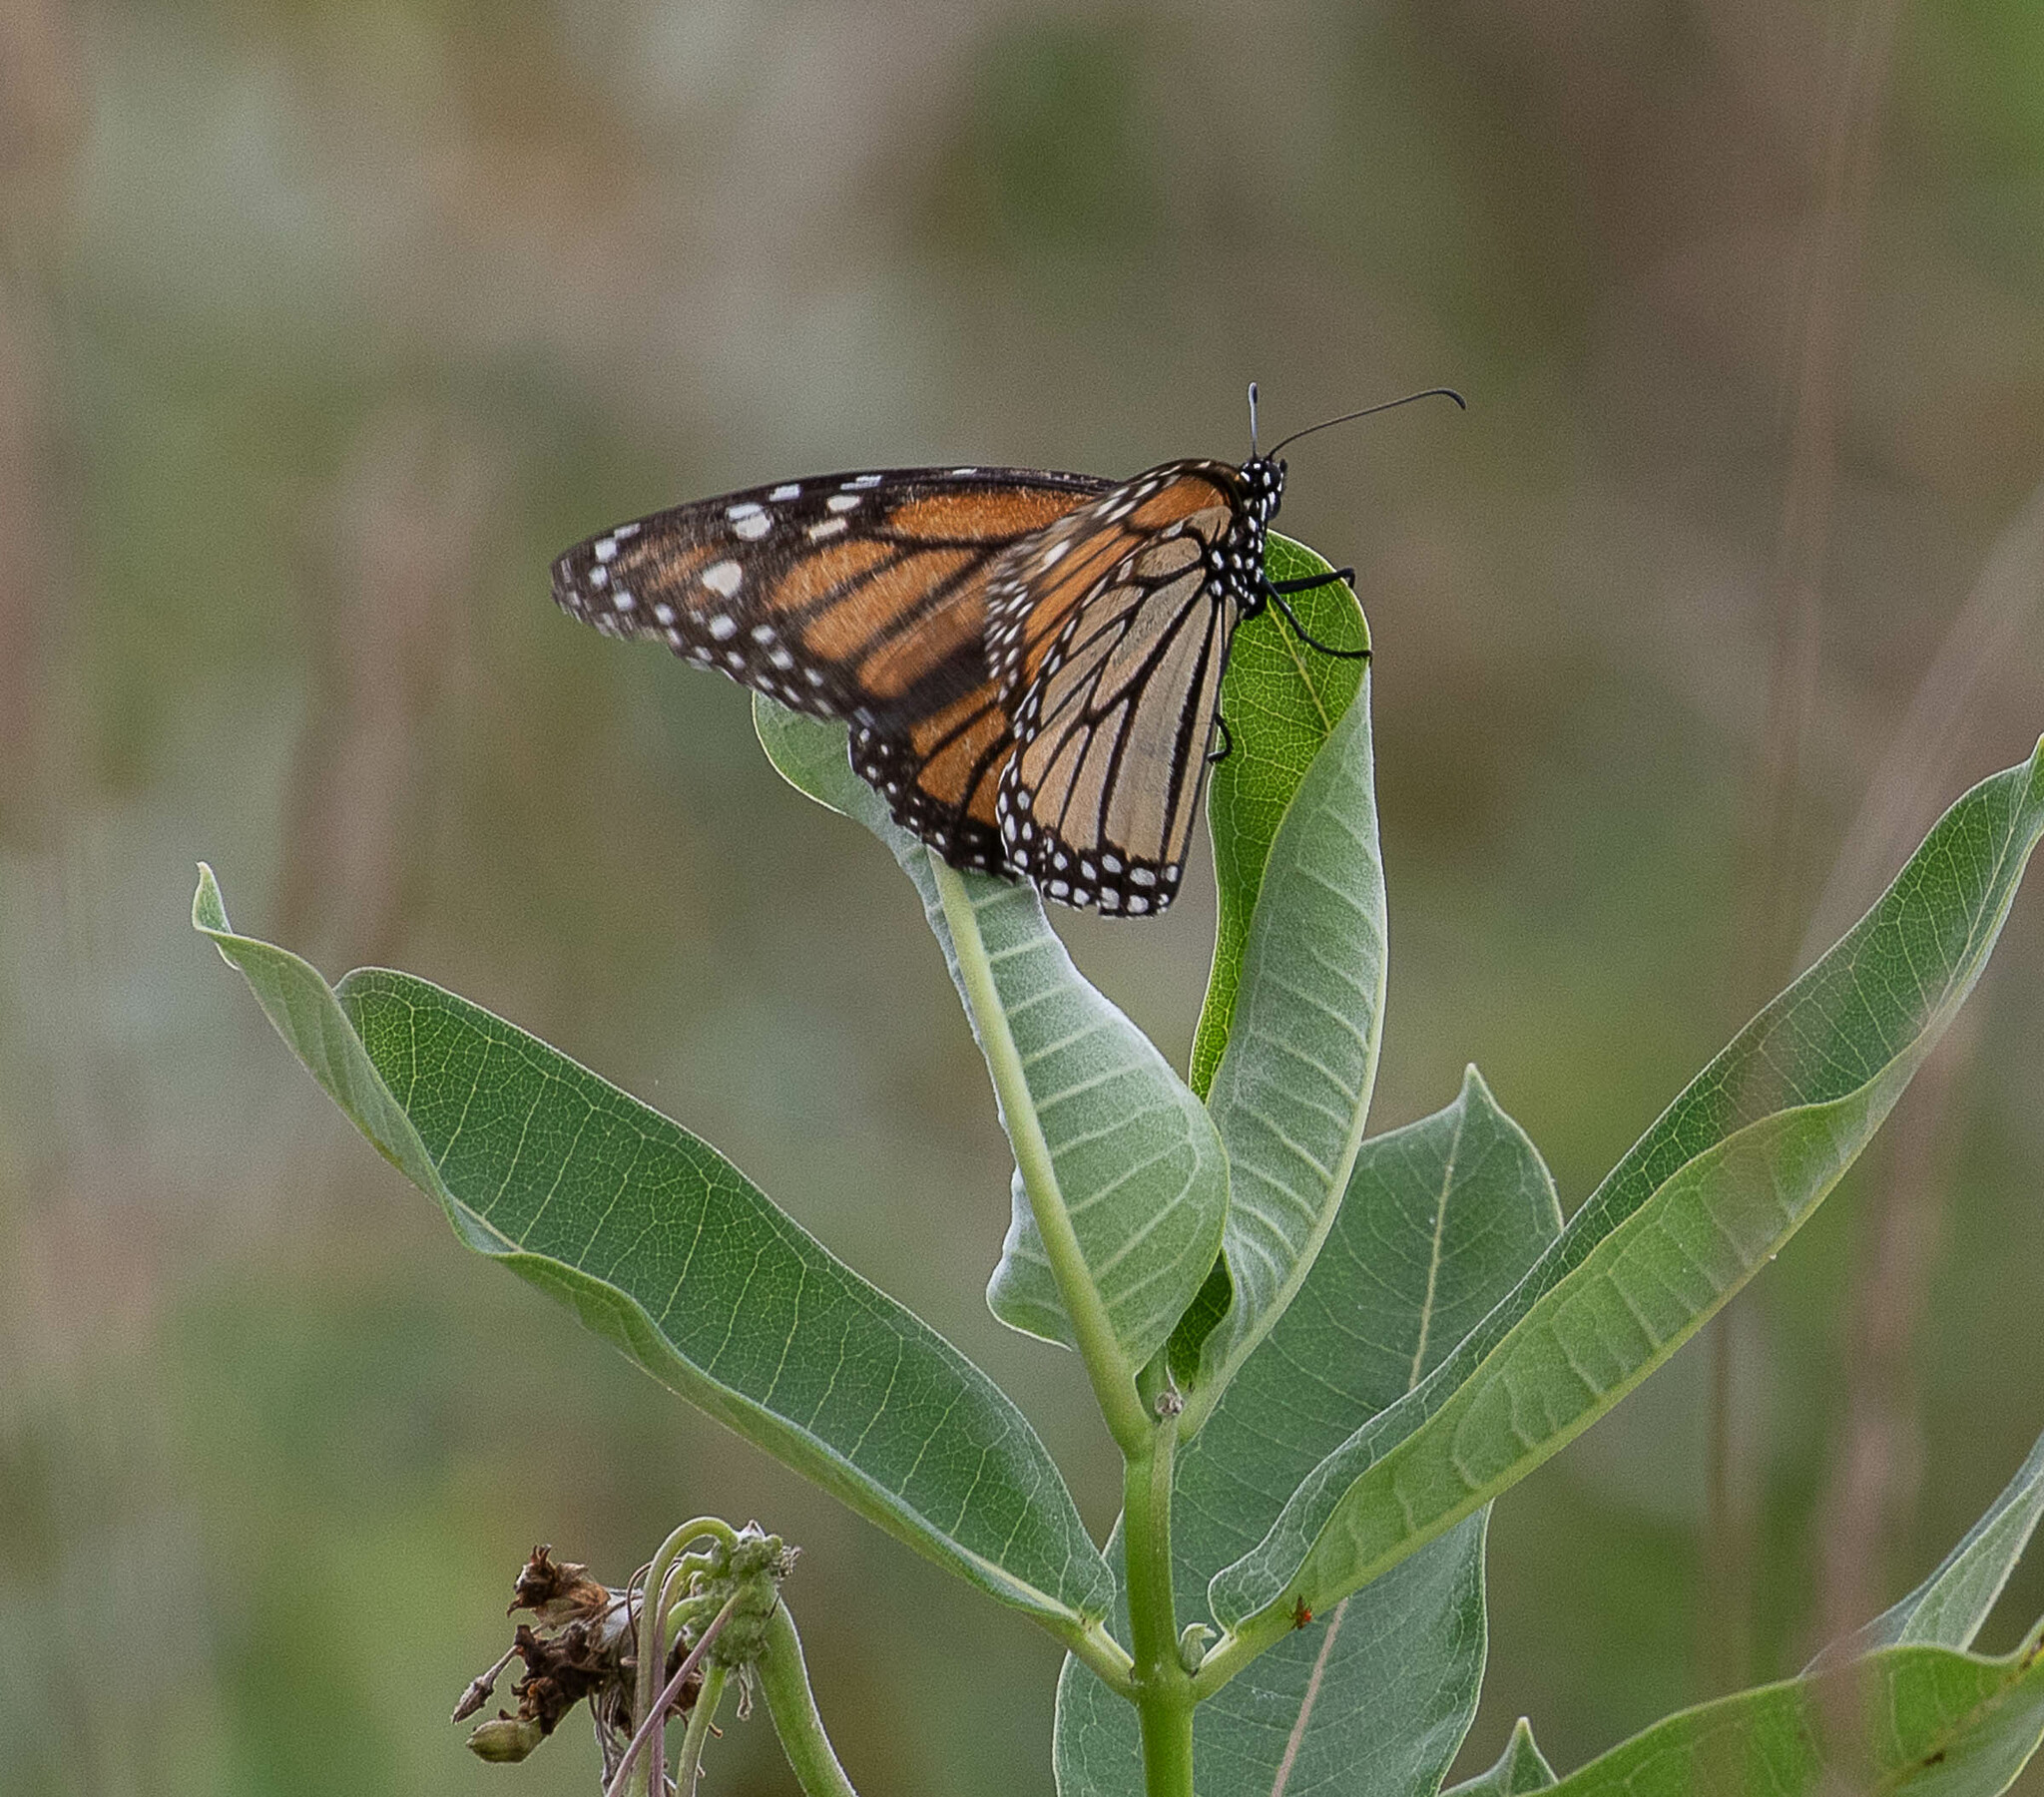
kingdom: Animalia
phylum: Arthropoda
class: Insecta
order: Lepidoptera
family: Nymphalidae
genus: Danaus
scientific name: Danaus plexippus
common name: Monarch
